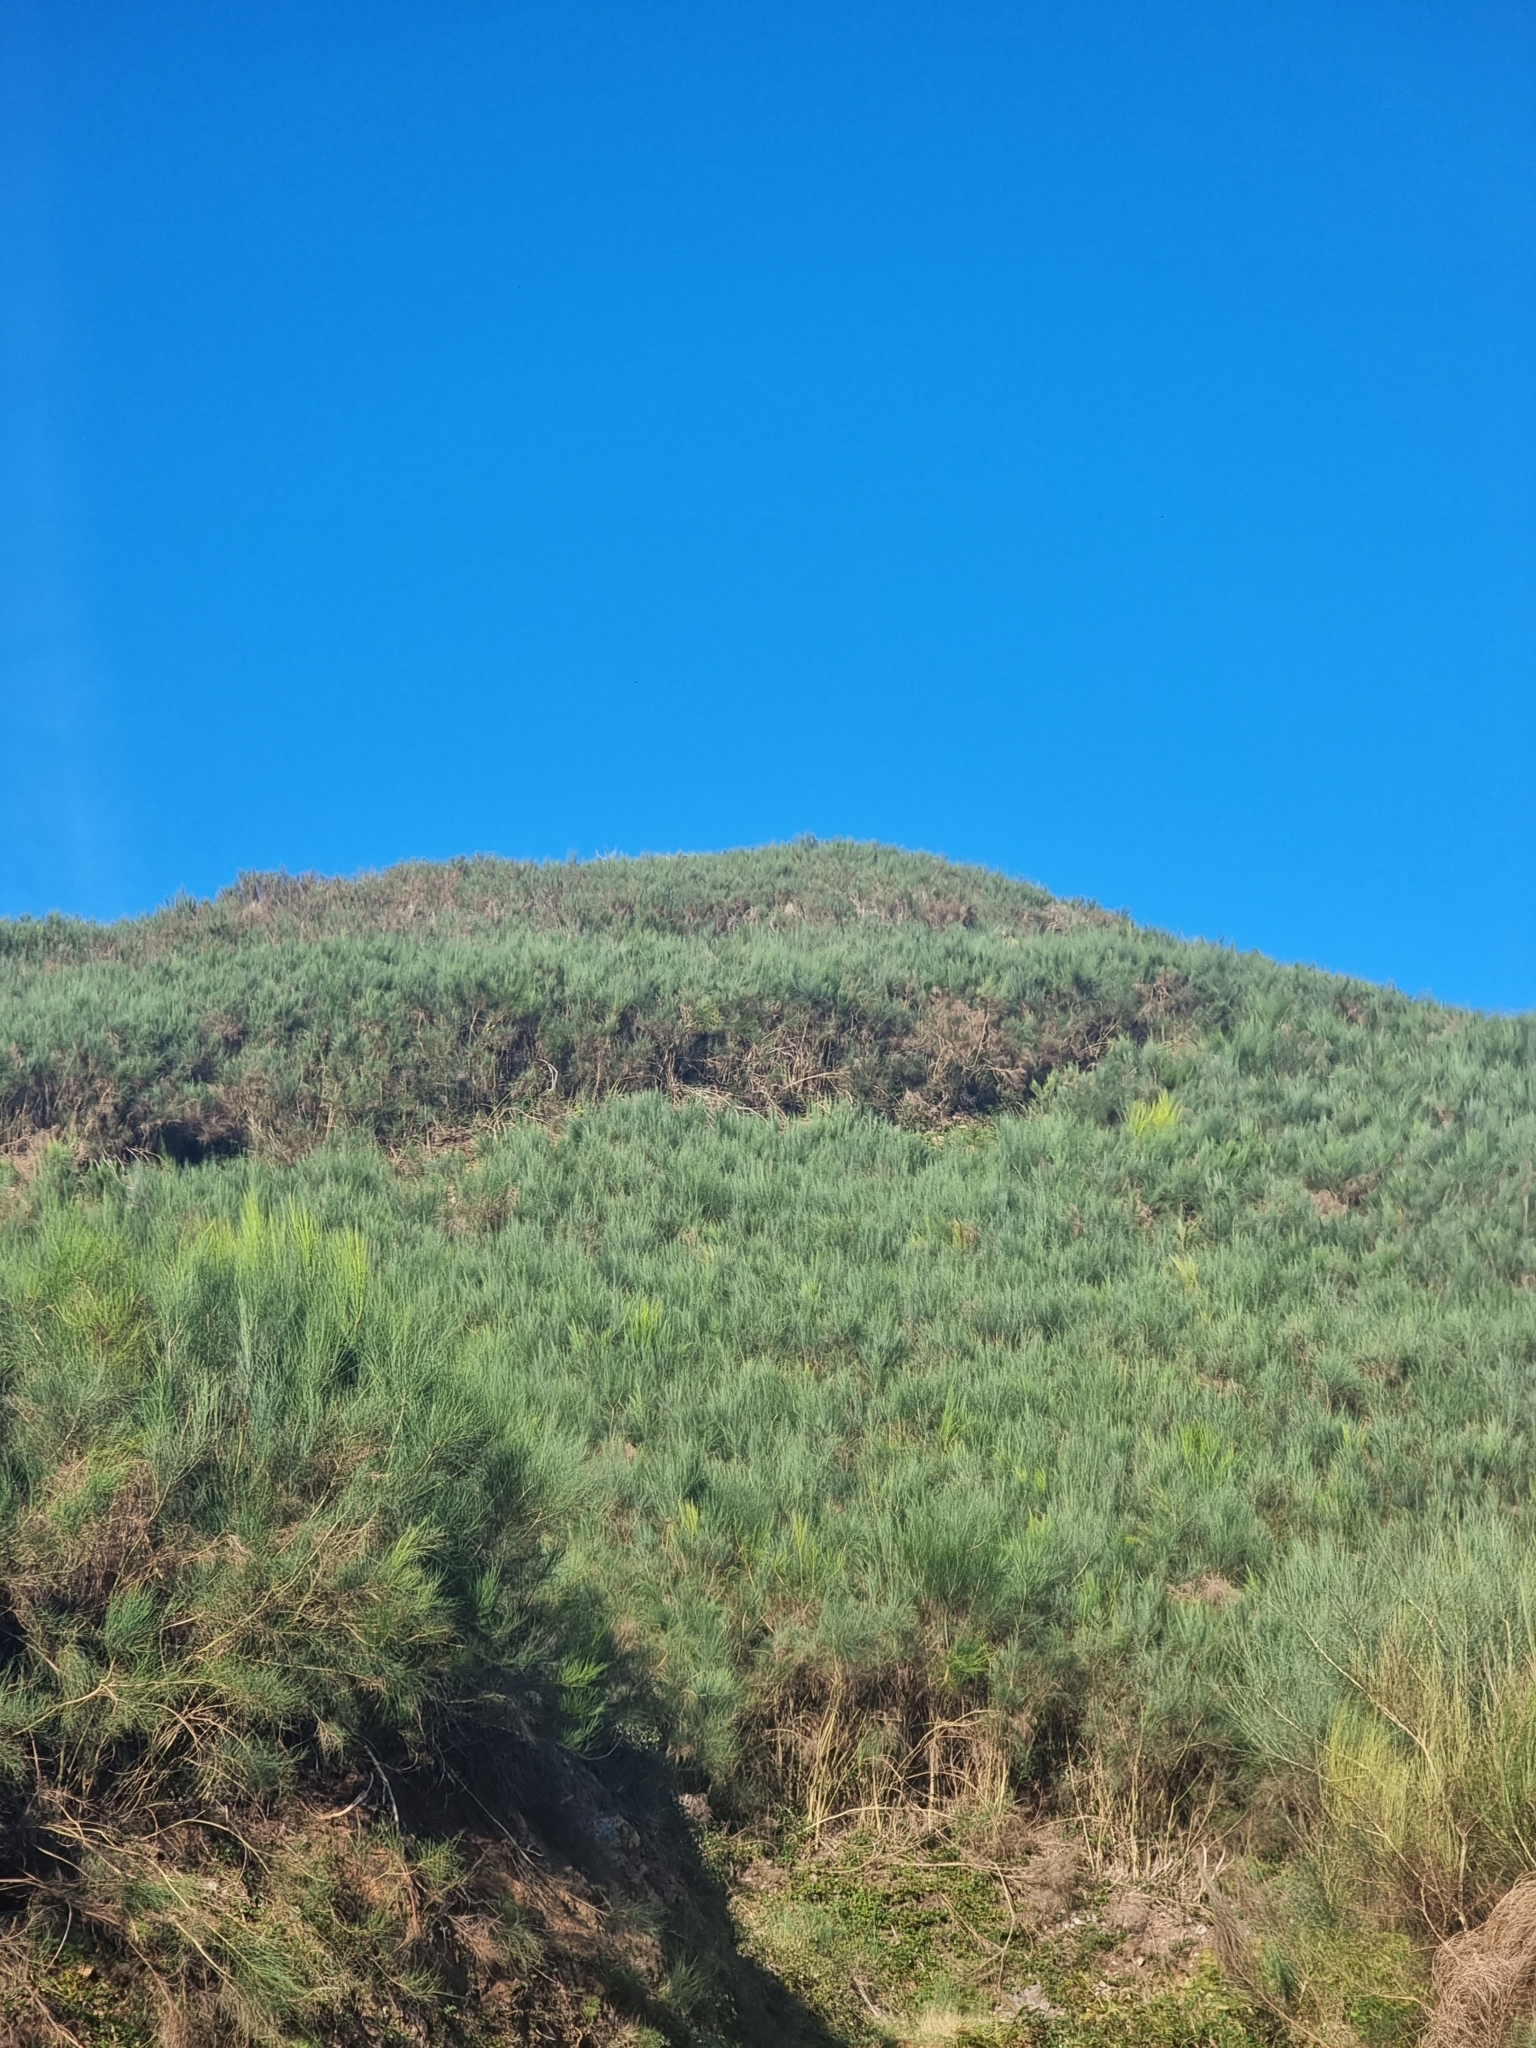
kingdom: Plantae
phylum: Tracheophyta
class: Magnoliopsida
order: Fabales
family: Fabaceae
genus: Cytisus
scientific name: Cytisus scoparius
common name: Scotch broom
